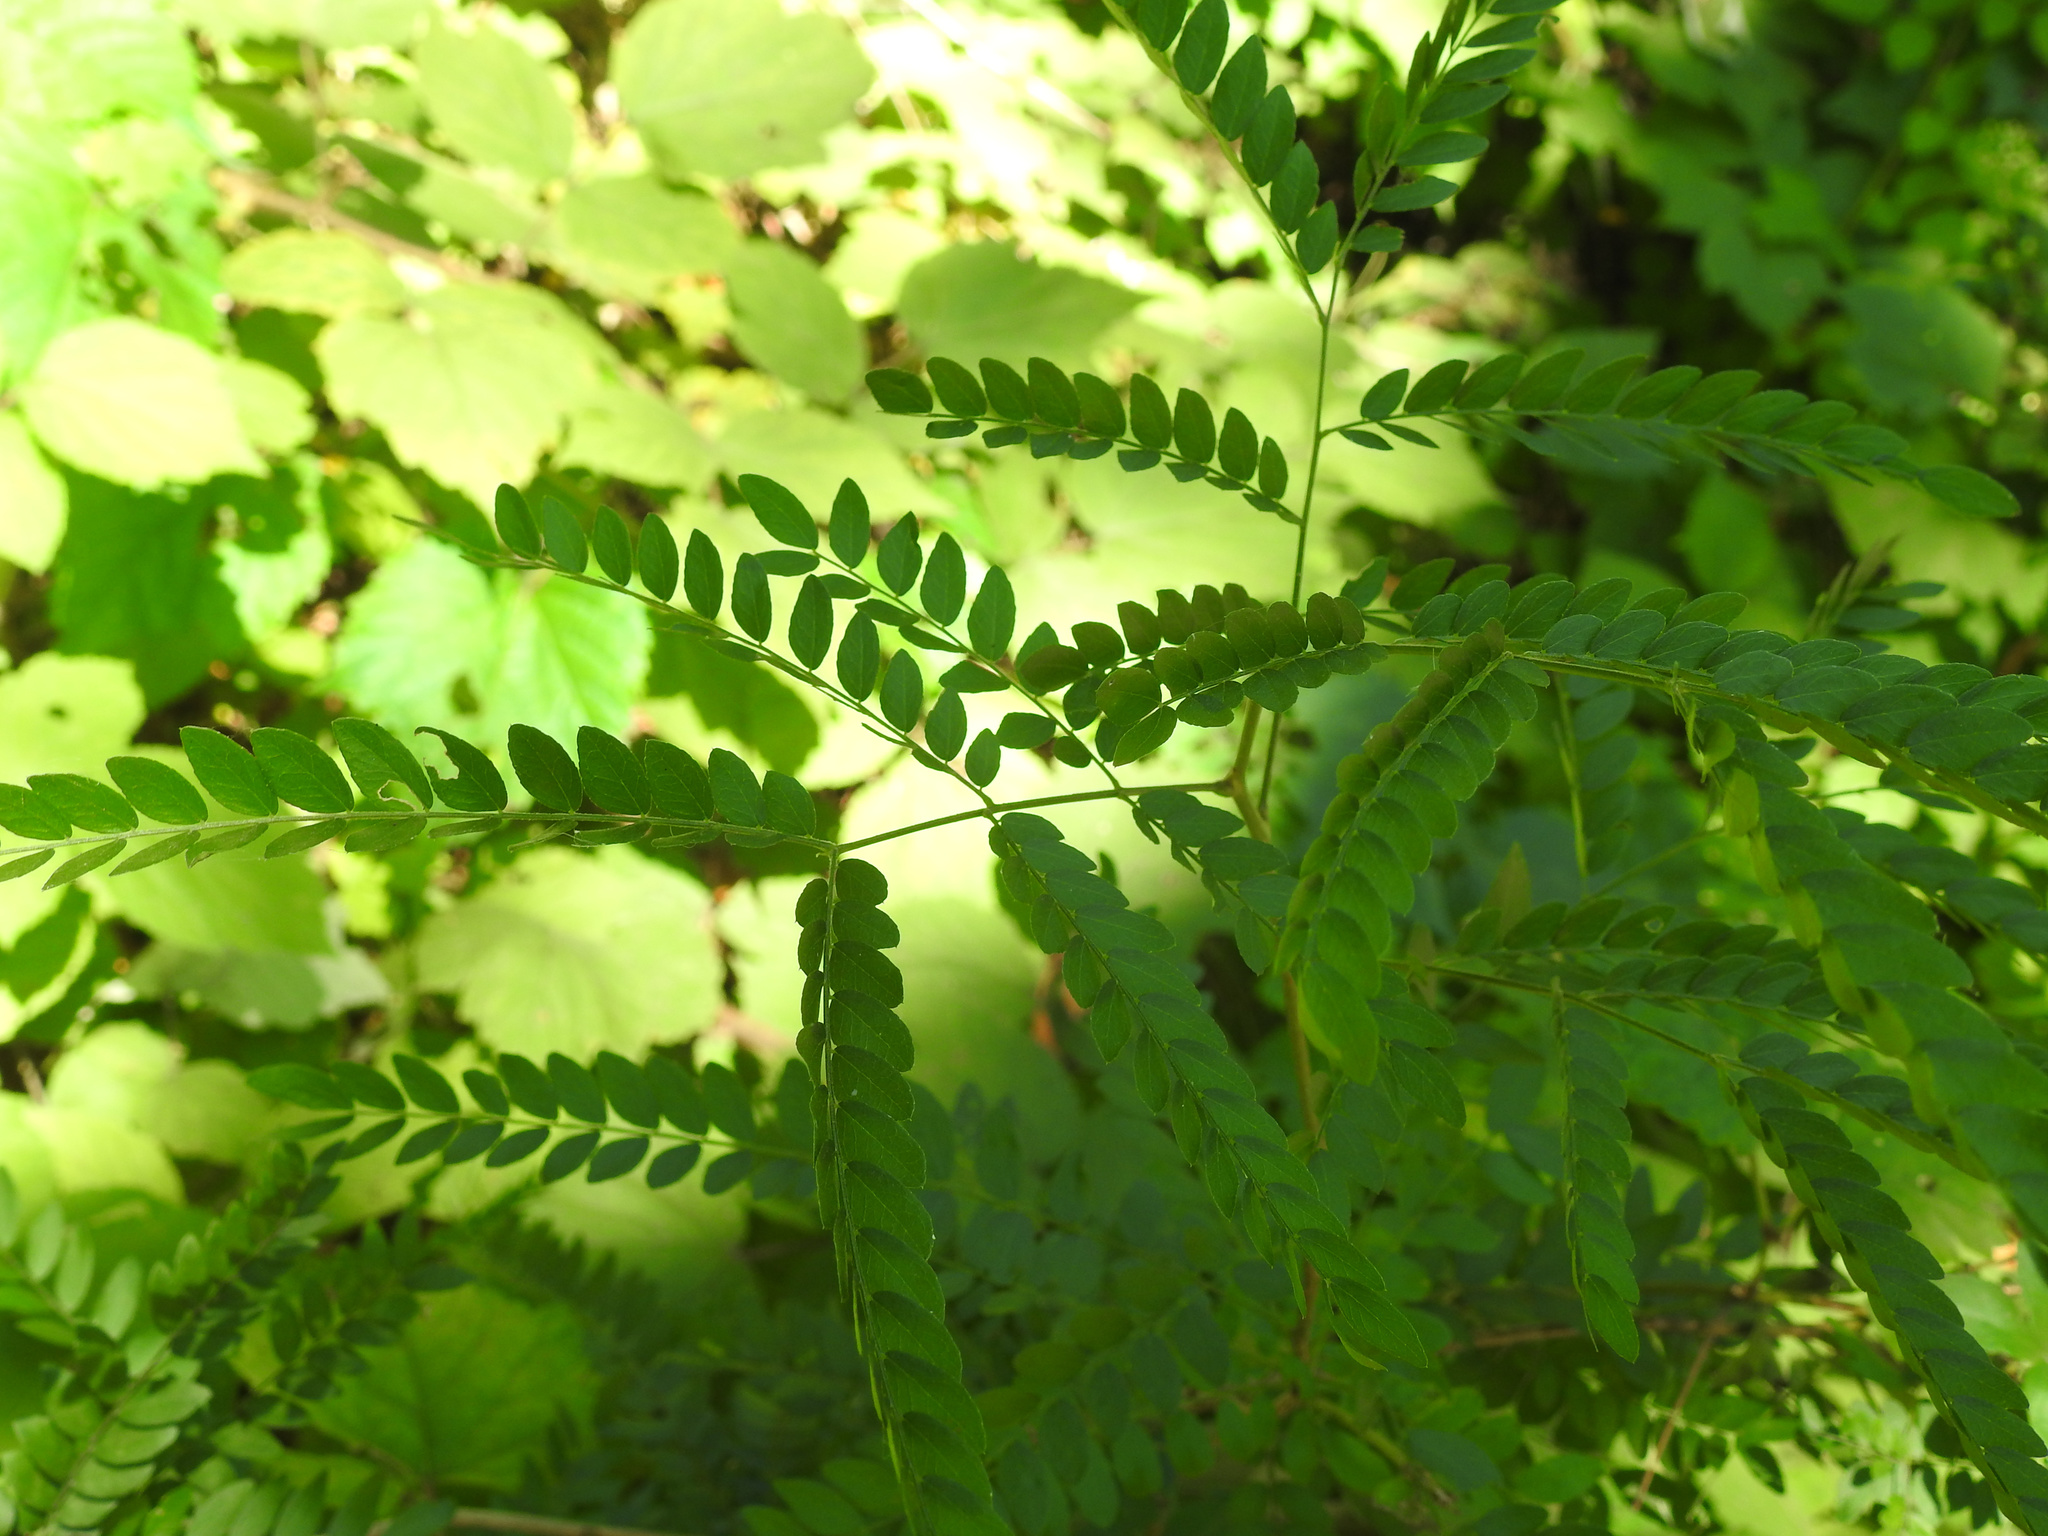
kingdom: Plantae
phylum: Tracheophyta
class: Magnoliopsida
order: Fabales
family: Fabaceae
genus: Gleditsia
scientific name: Gleditsia triacanthos
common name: Common honeylocust
